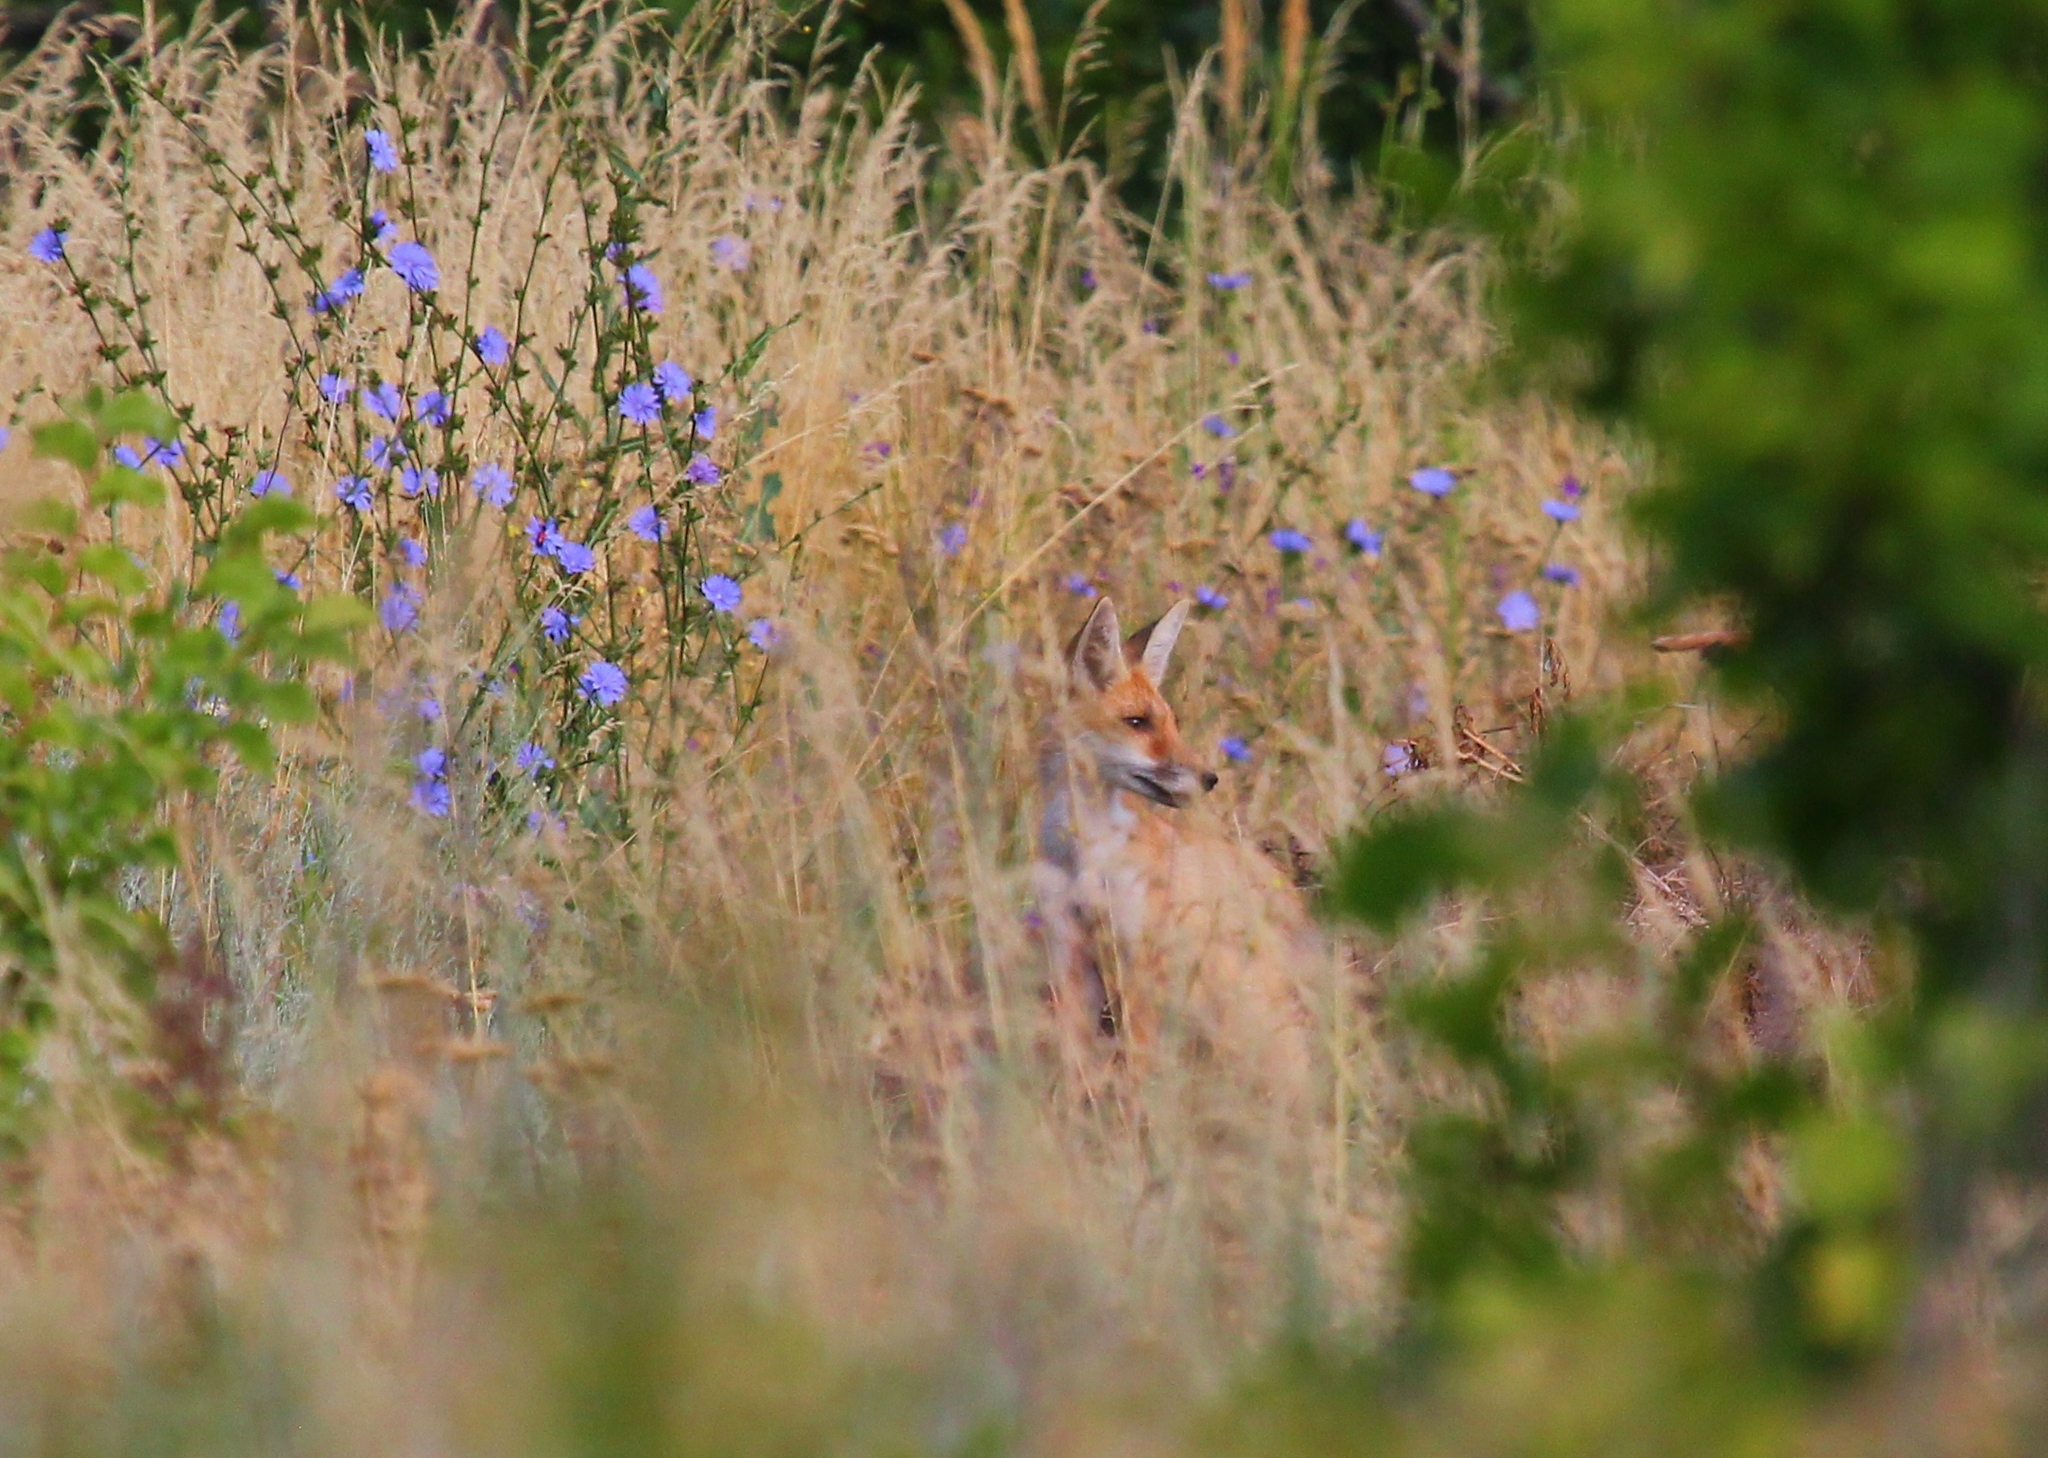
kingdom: Animalia
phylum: Chordata
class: Mammalia
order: Carnivora
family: Canidae
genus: Vulpes
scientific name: Vulpes vulpes
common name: Red fox
